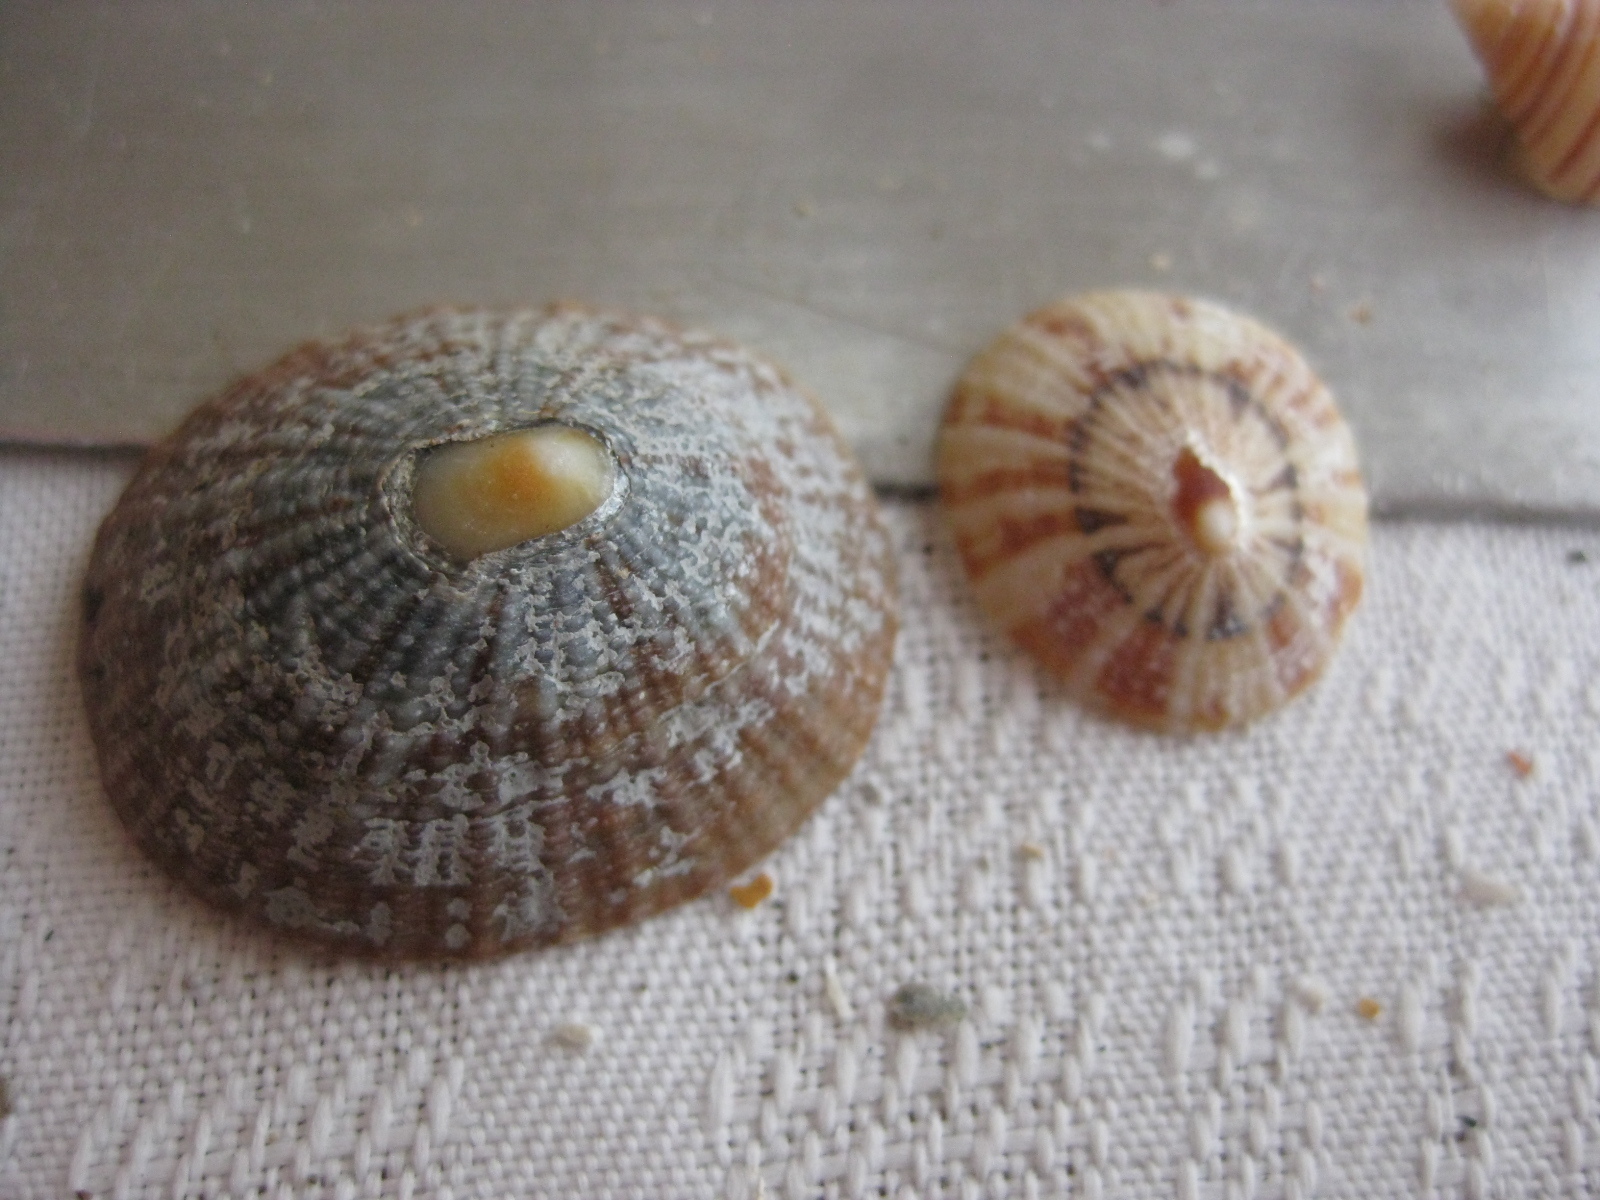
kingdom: Animalia
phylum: Mollusca
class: Gastropoda
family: Nacellidae
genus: Cellana
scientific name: Cellana stellifera
